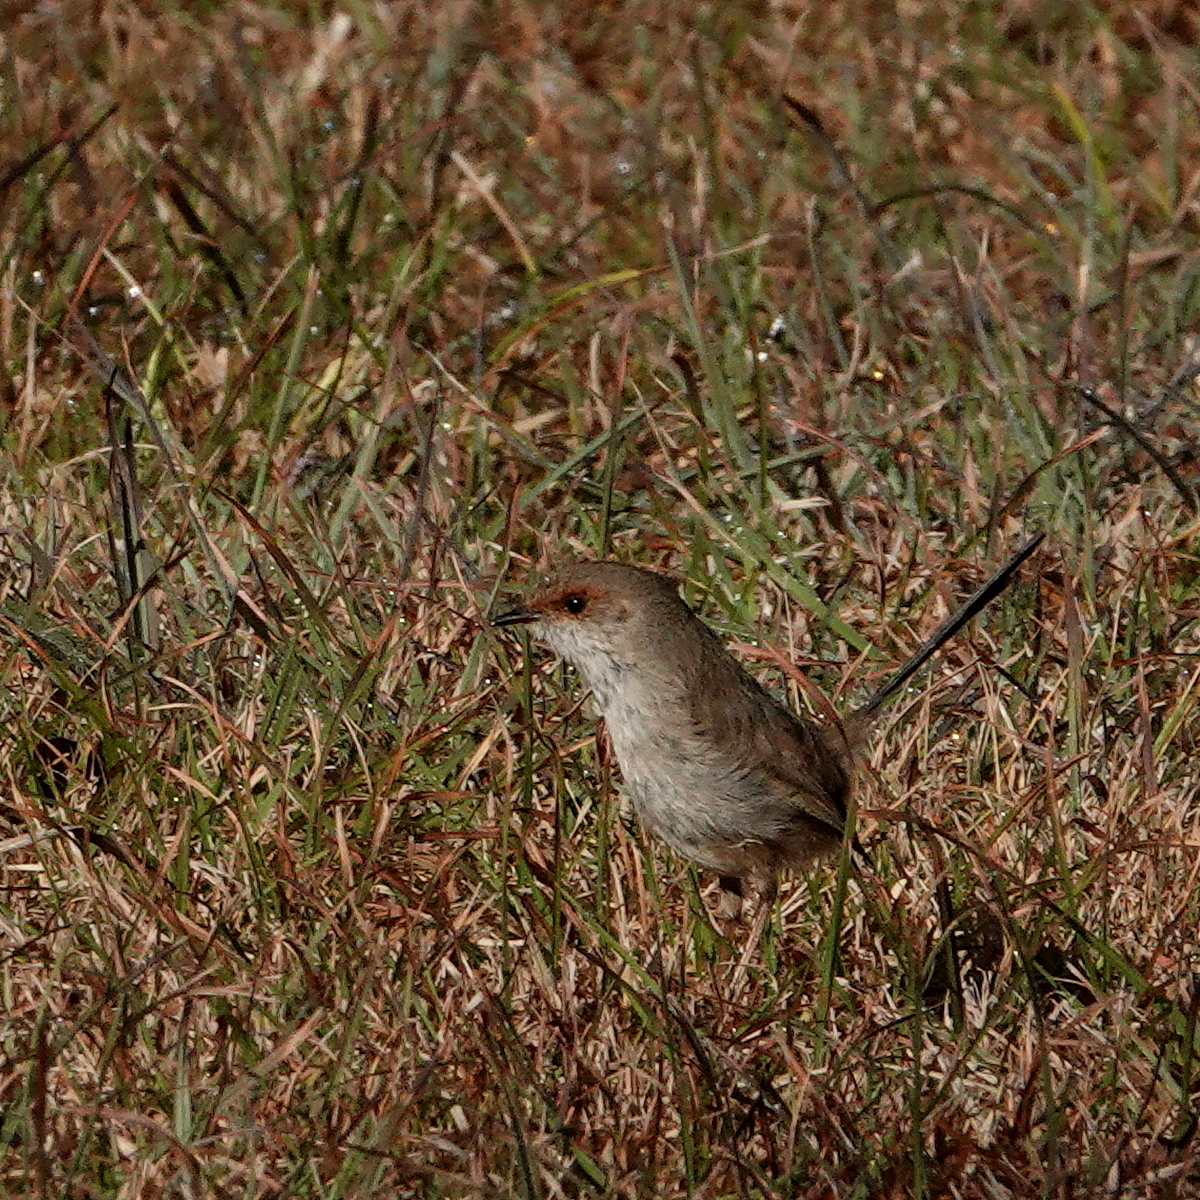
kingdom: Animalia
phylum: Chordata
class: Aves
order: Passeriformes
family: Maluridae
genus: Malurus
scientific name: Malurus cyaneus
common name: Superb fairywren
